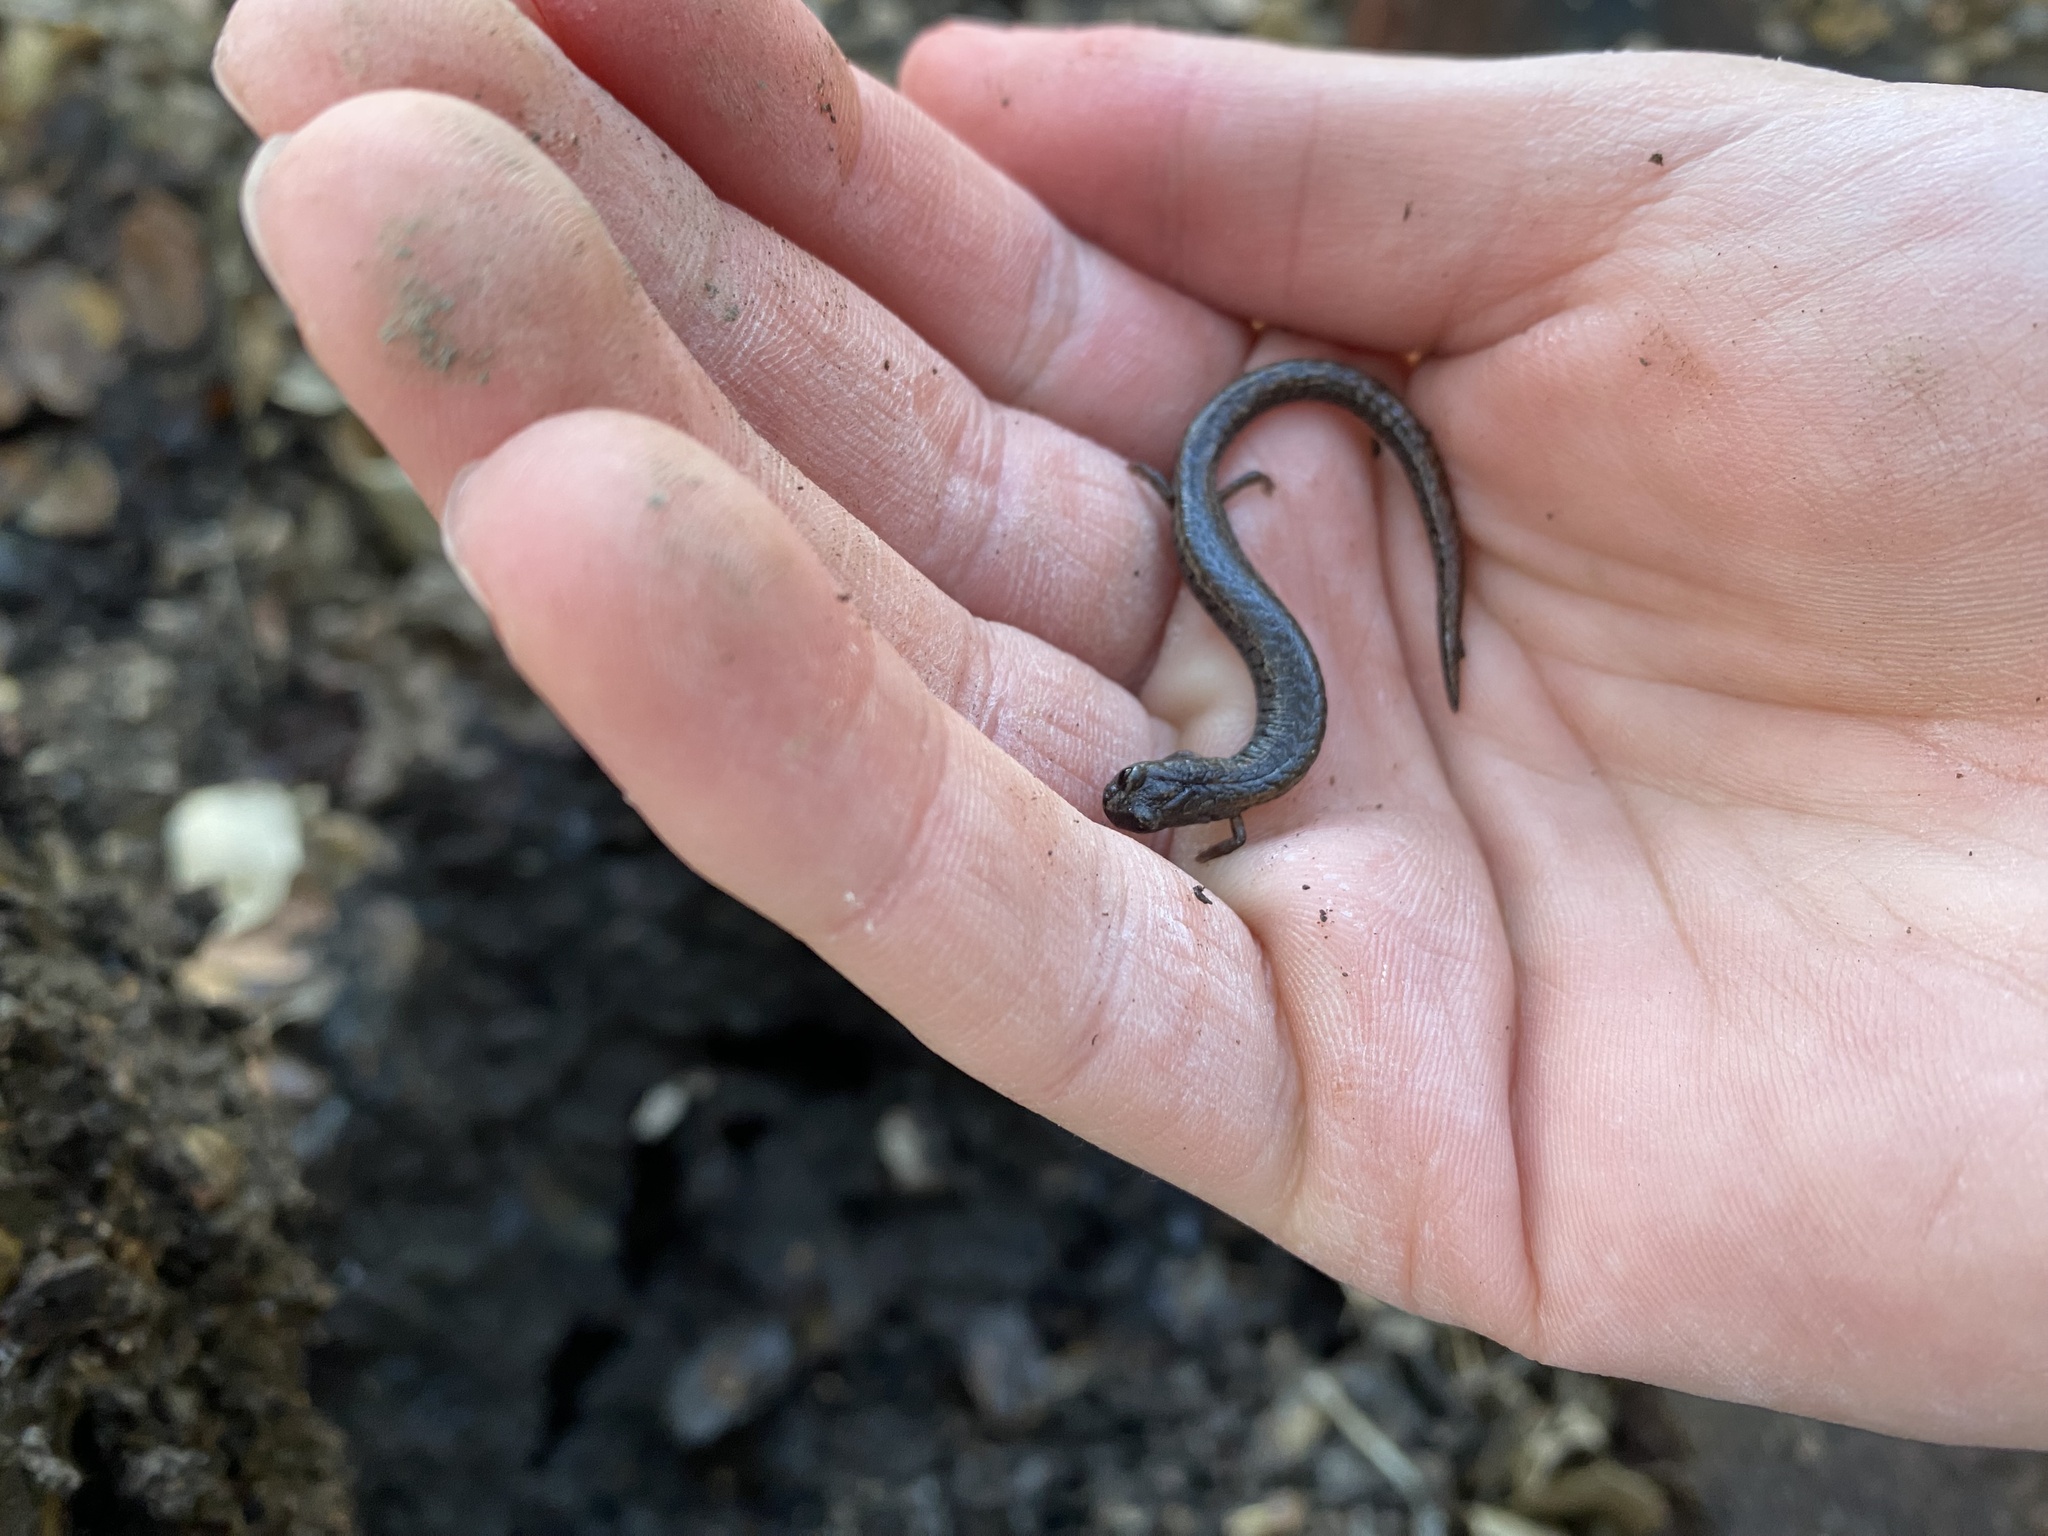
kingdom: Animalia
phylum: Chordata
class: Amphibia
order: Caudata
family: Plethodontidae
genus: Batrachoseps
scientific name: Batrachoseps attenuatus
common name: California slender salamander
